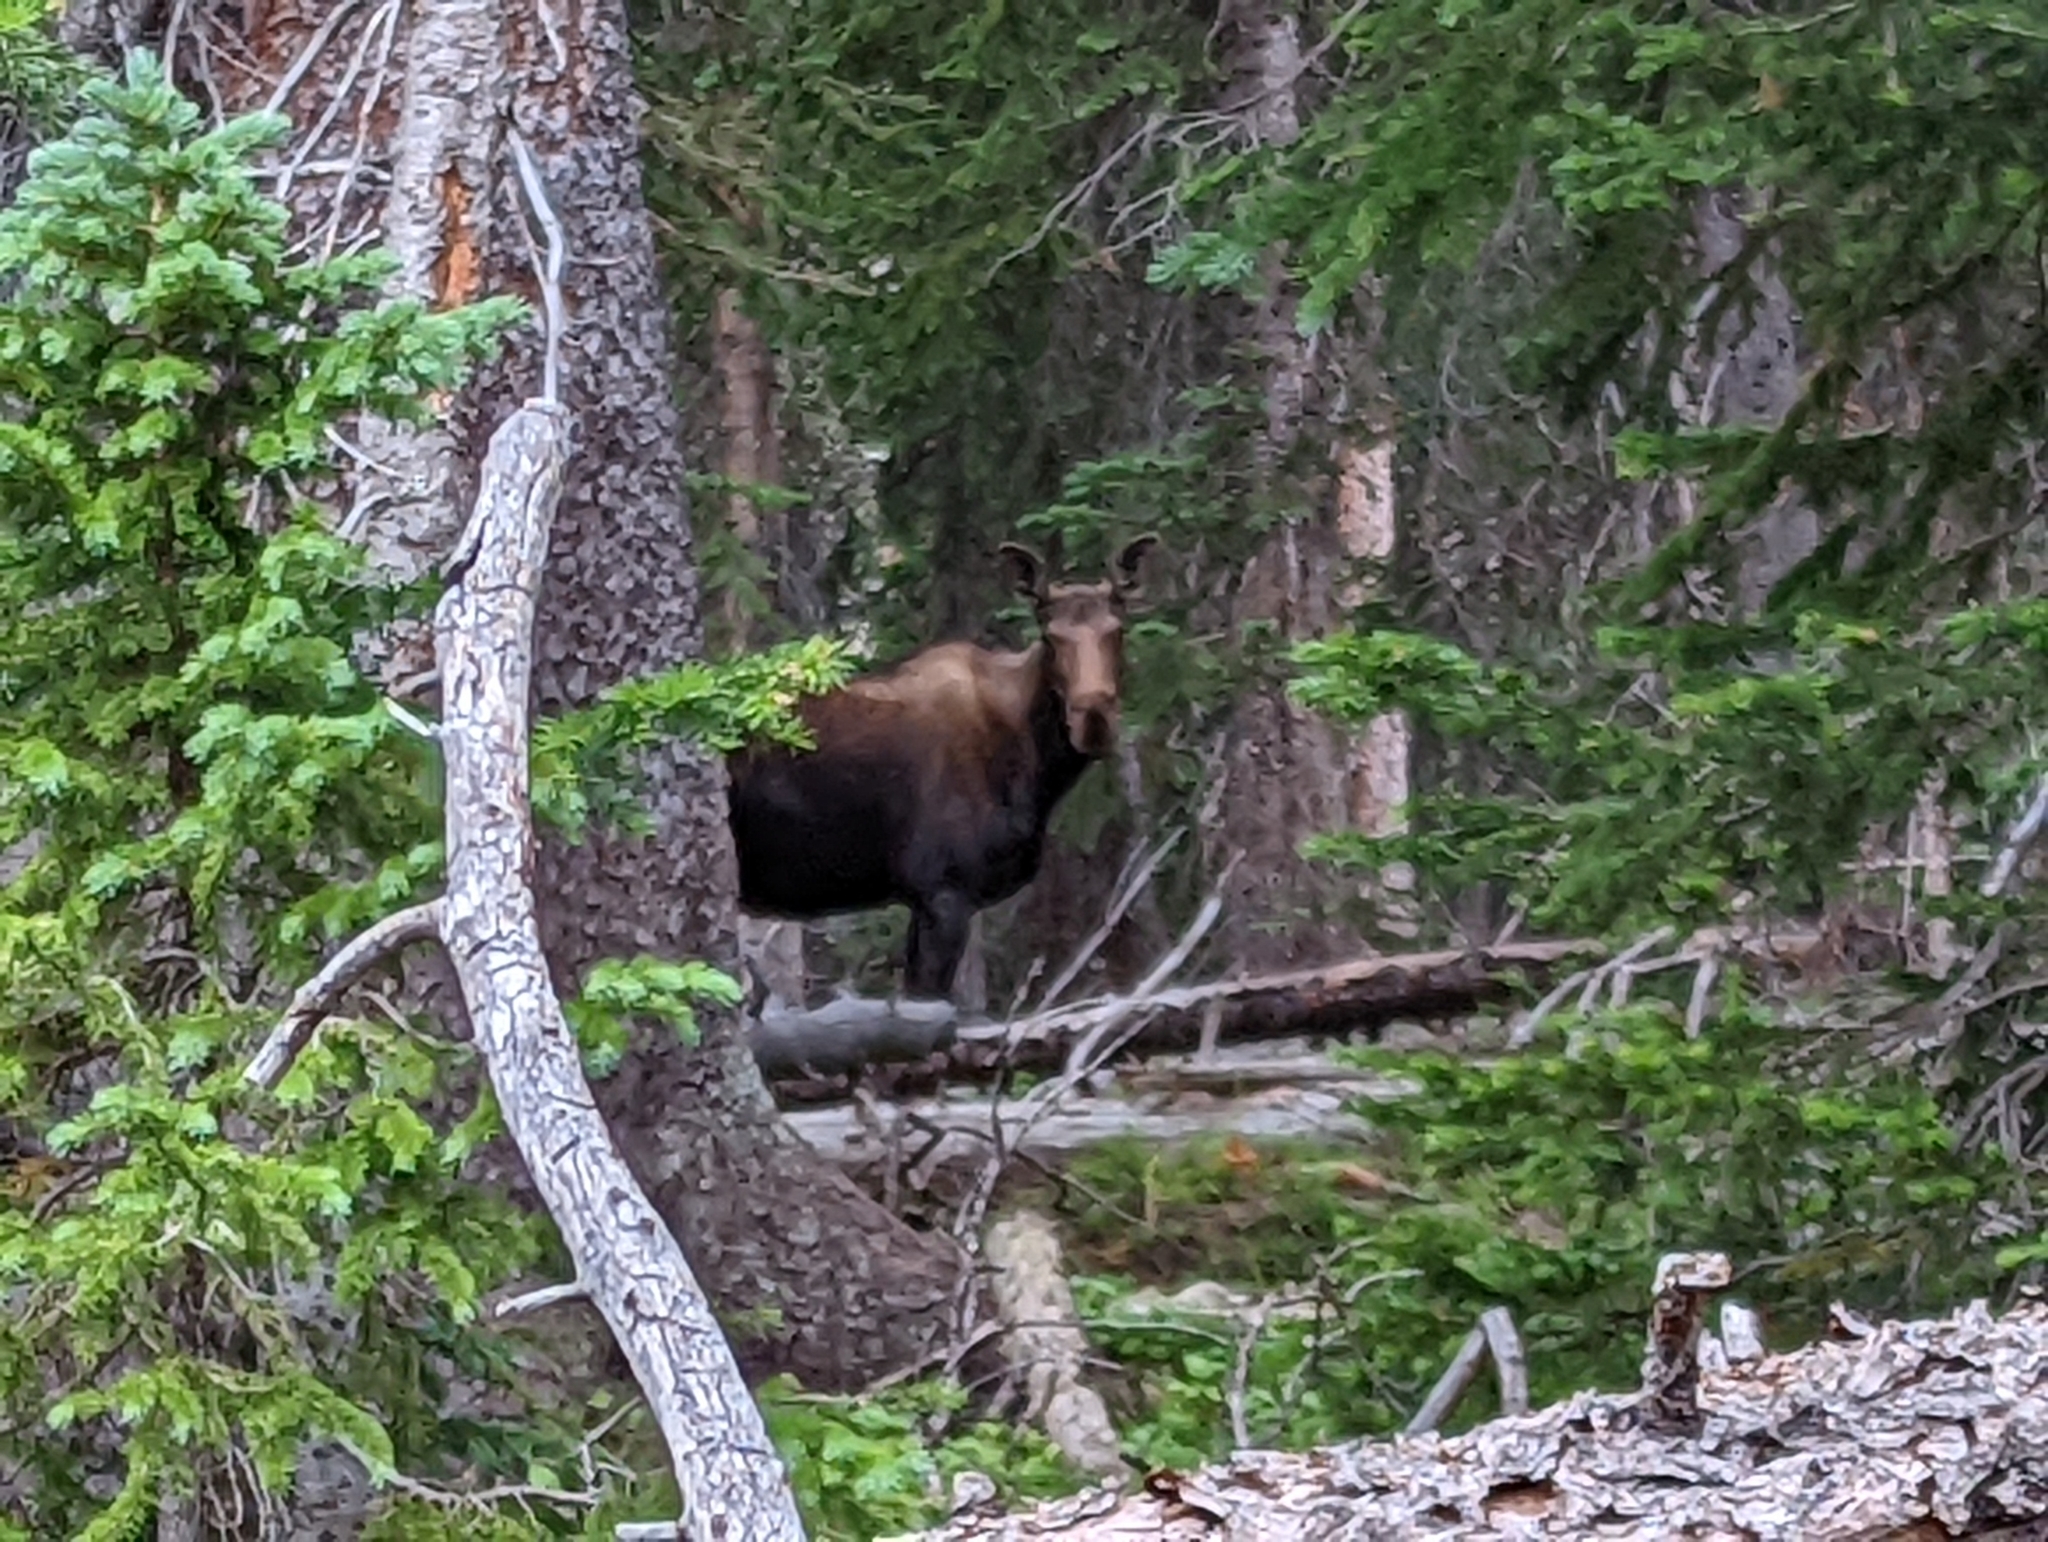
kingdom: Animalia
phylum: Chordata
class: Mammalia
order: Artiodactyla
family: Cervidae
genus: Alces
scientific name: Alces alces
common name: Moose
